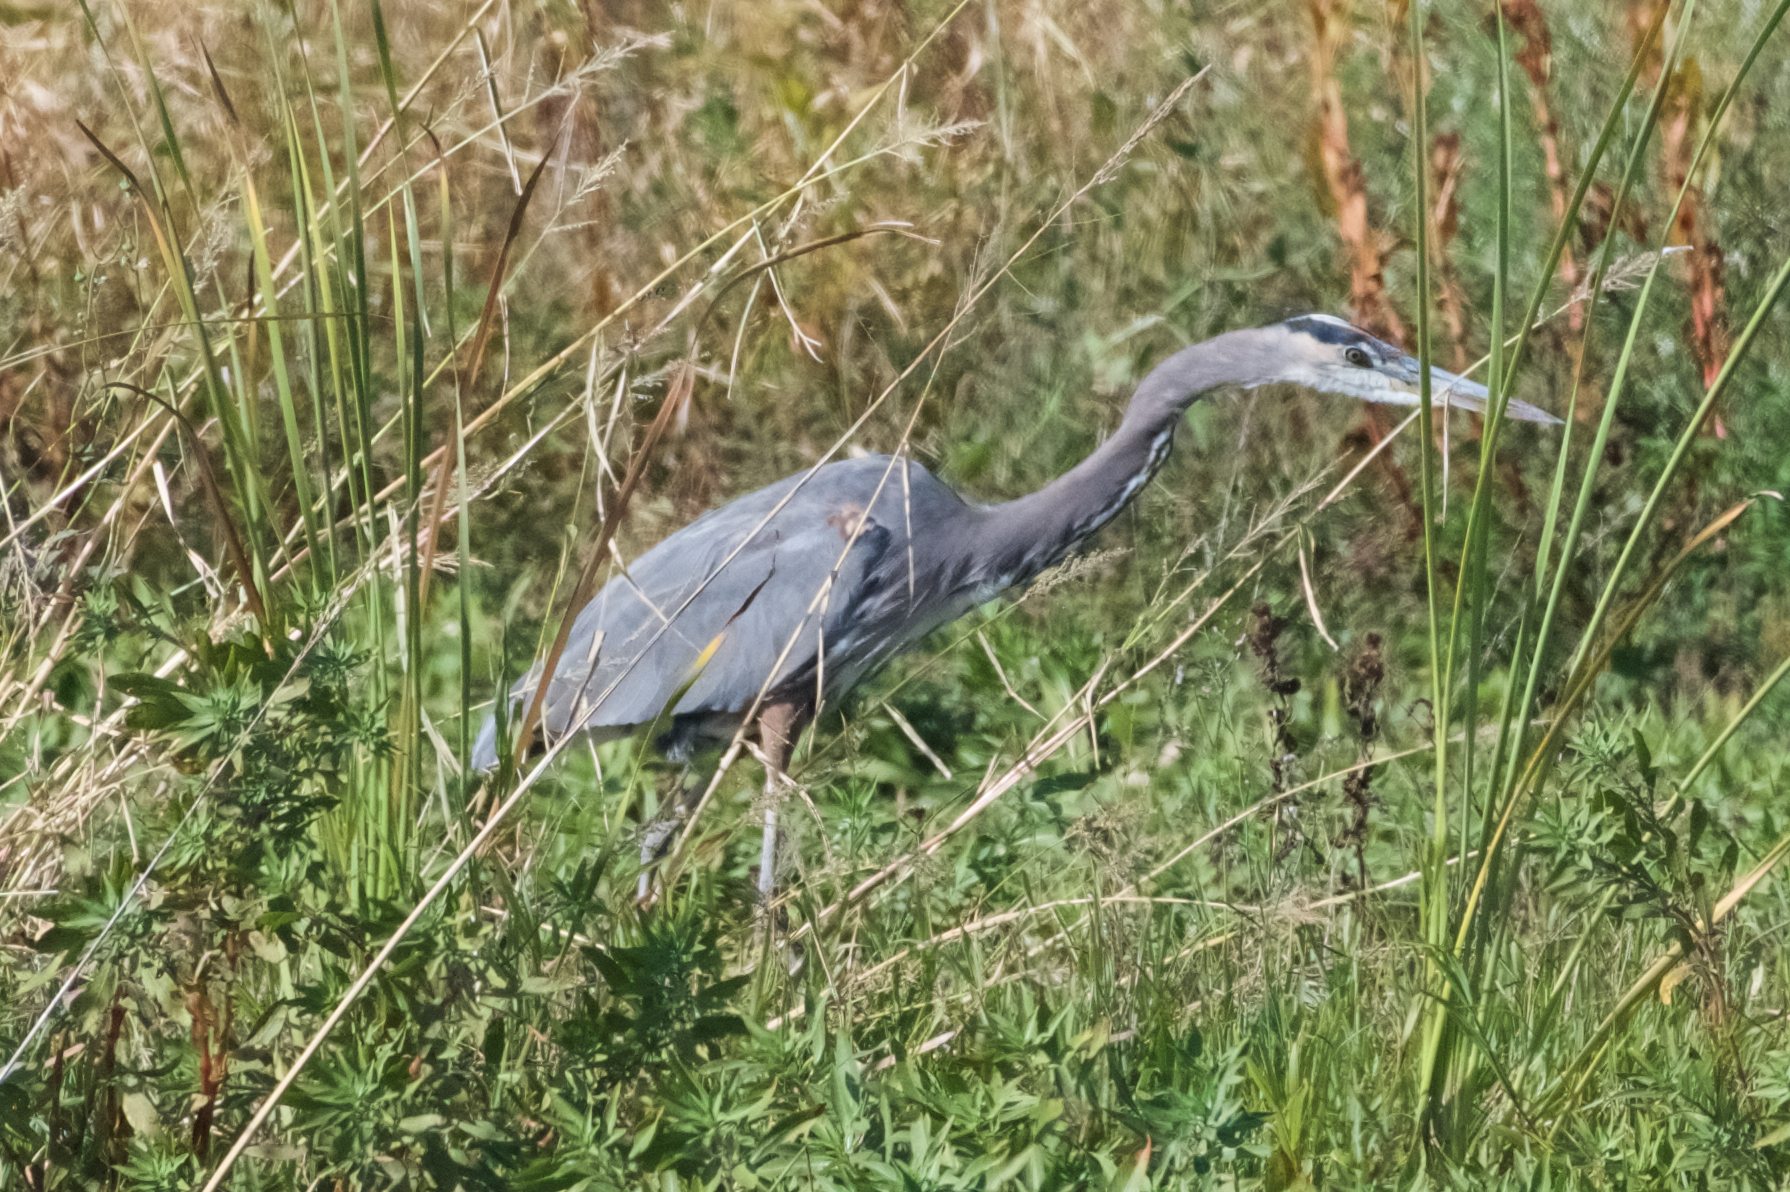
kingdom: Animalia
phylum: Chordata
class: Aves
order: Pelecaniformes
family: Ardeidae
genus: Ardea
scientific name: Ardea herodias
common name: Great blue heron
